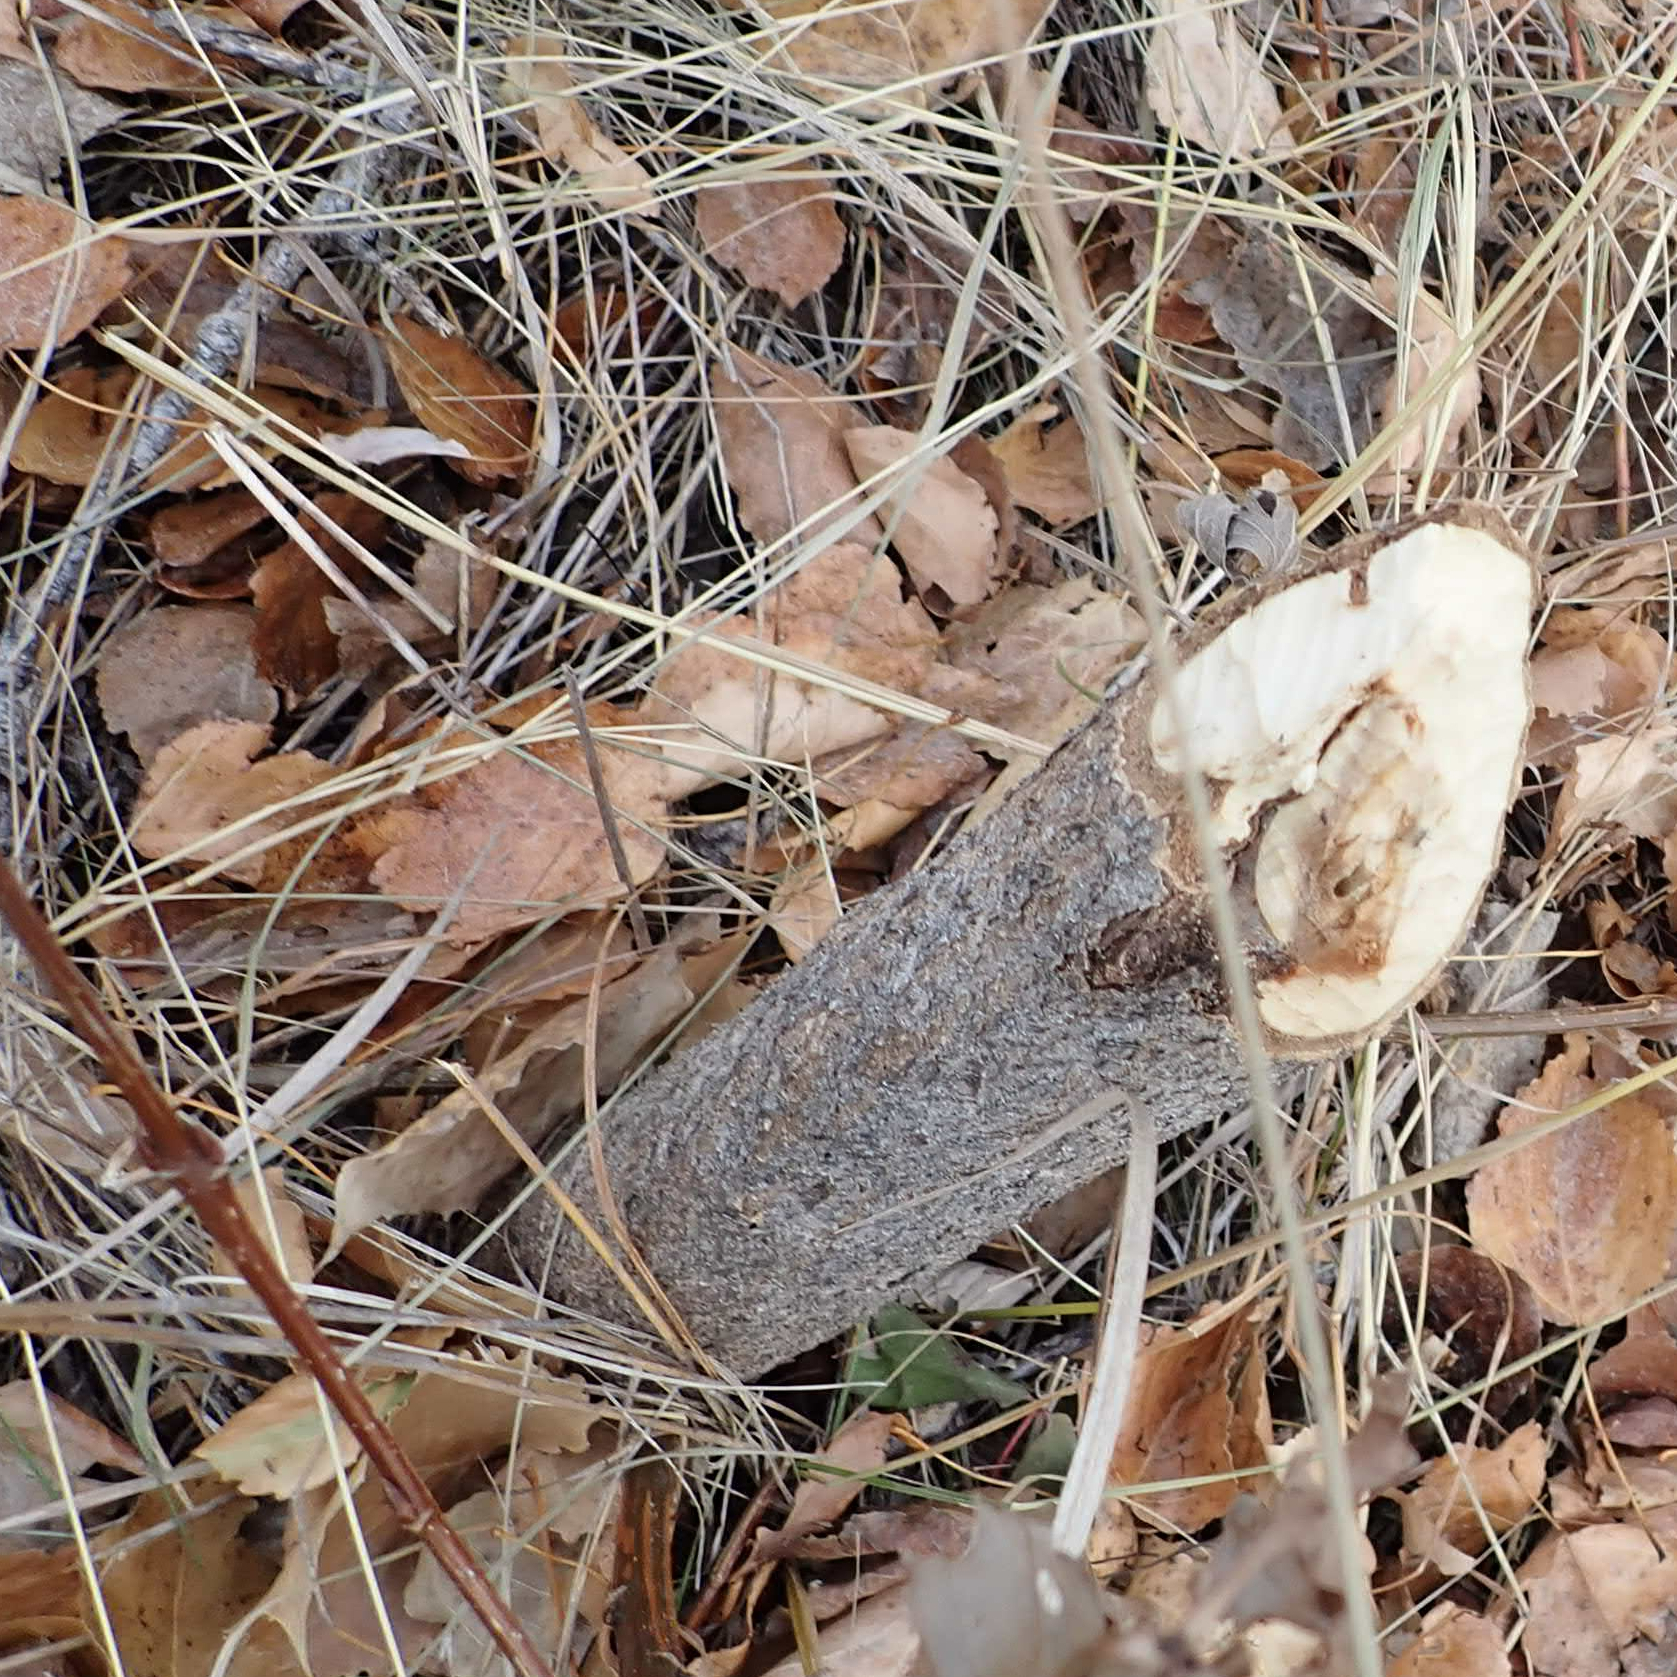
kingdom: Animalia
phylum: Chordata
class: Mammalia
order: Rodentia
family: Castoridae
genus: Castor
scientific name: Castor canadensis
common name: American beaver
